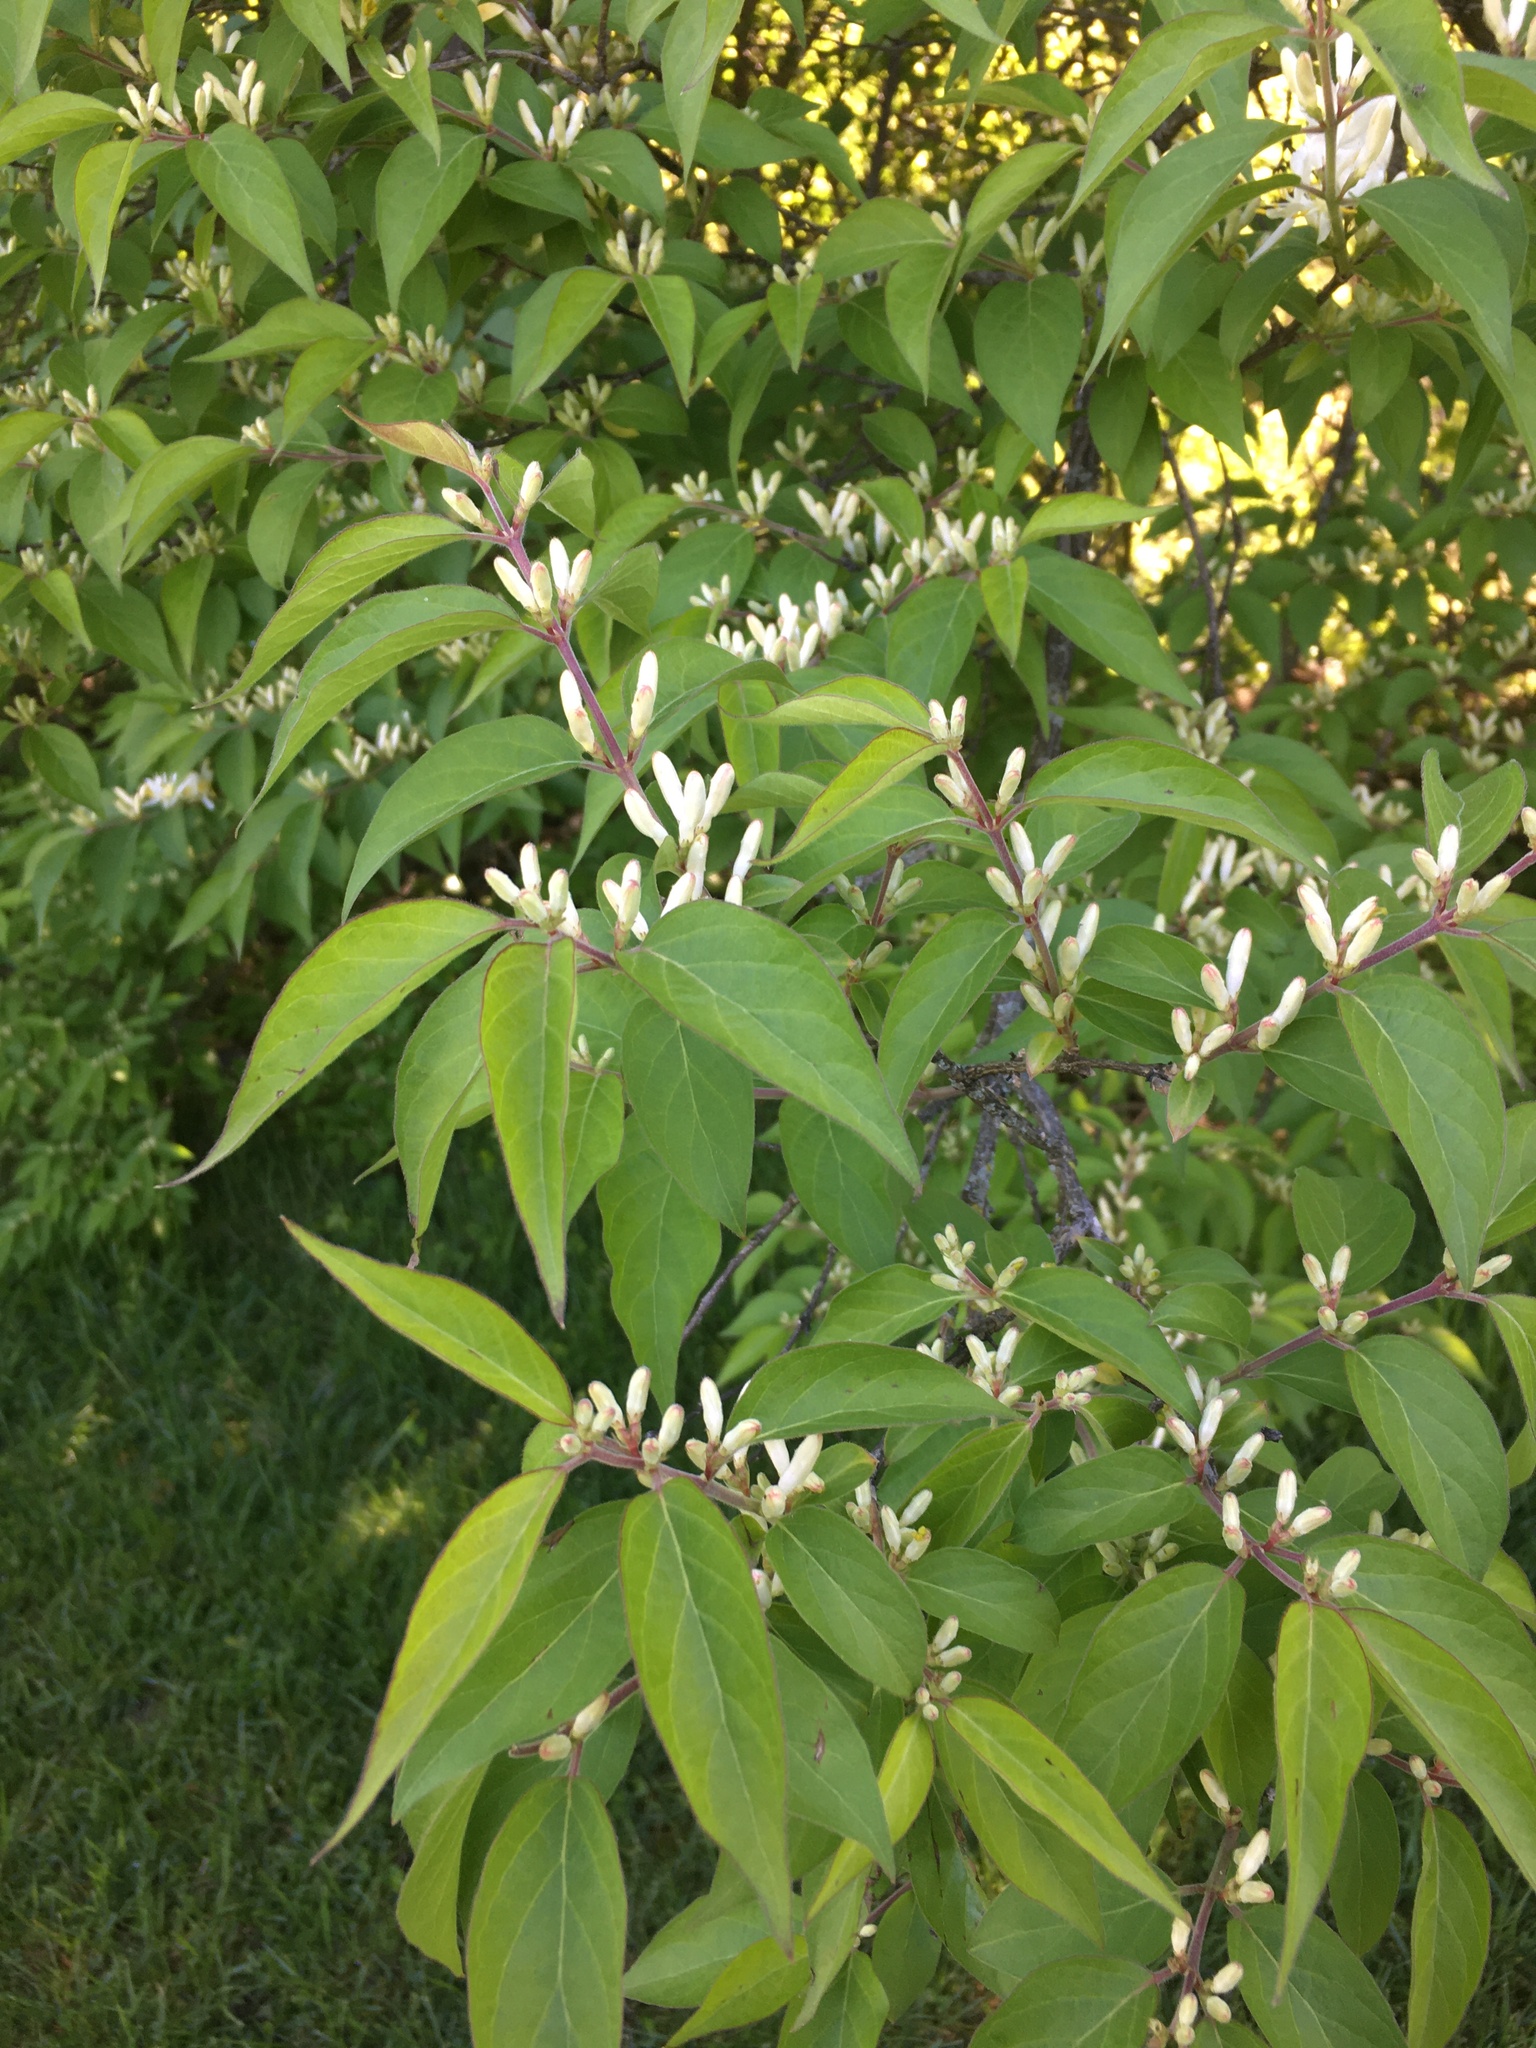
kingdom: Plantae
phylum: Tracheophyta
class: Magnoliopsida
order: Dipsacales
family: Caprifoliaceae
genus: Lonicera
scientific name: Lonicera maackii
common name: Amur honeysuckle
